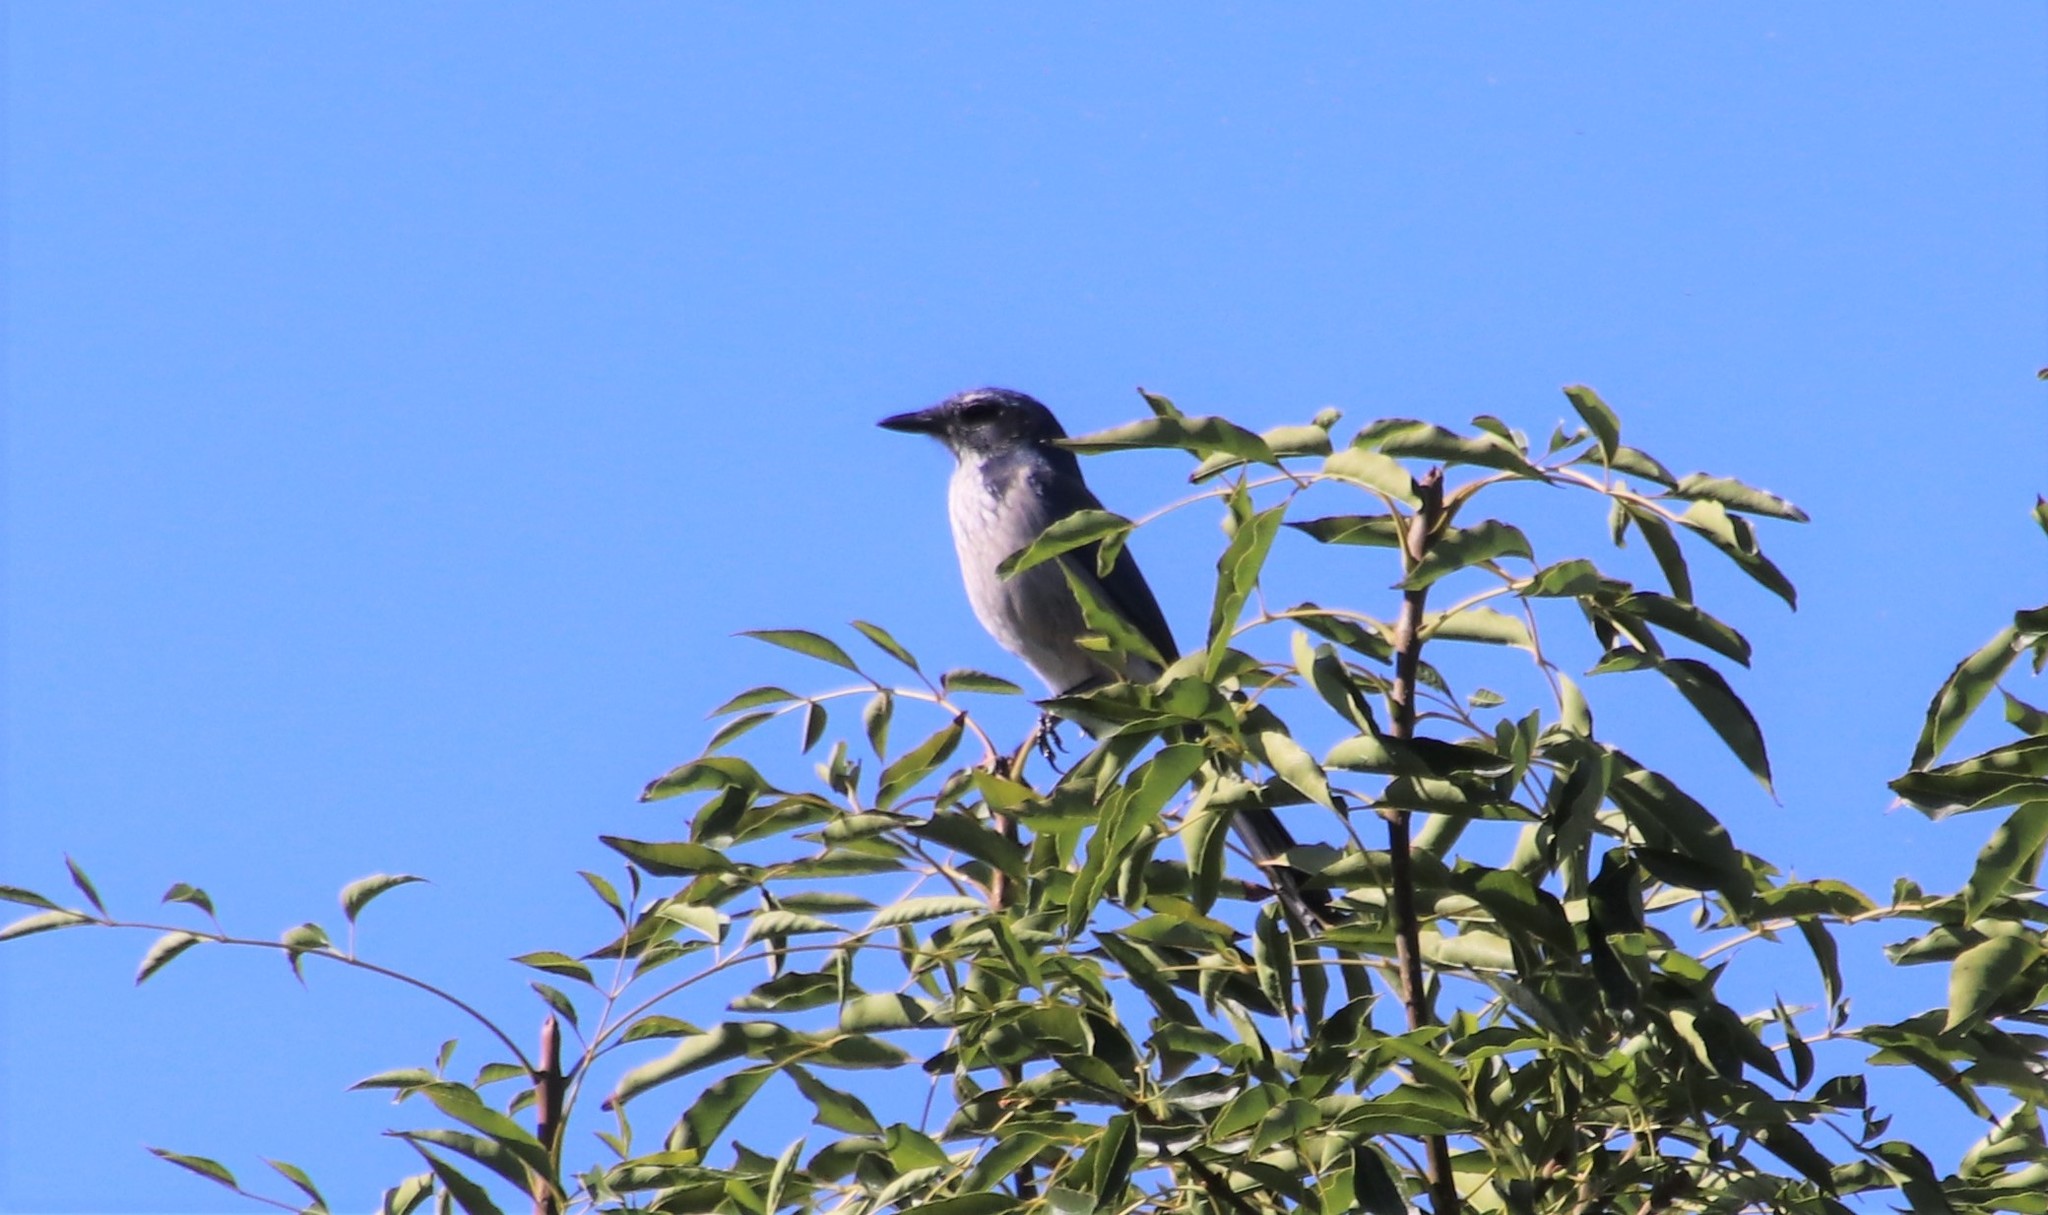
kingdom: Animalia
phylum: Chordata
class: Aves
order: Passeriformes
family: Corvidae
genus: Aphelocoma
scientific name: Aphelocoma californica
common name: California scrub-jay
